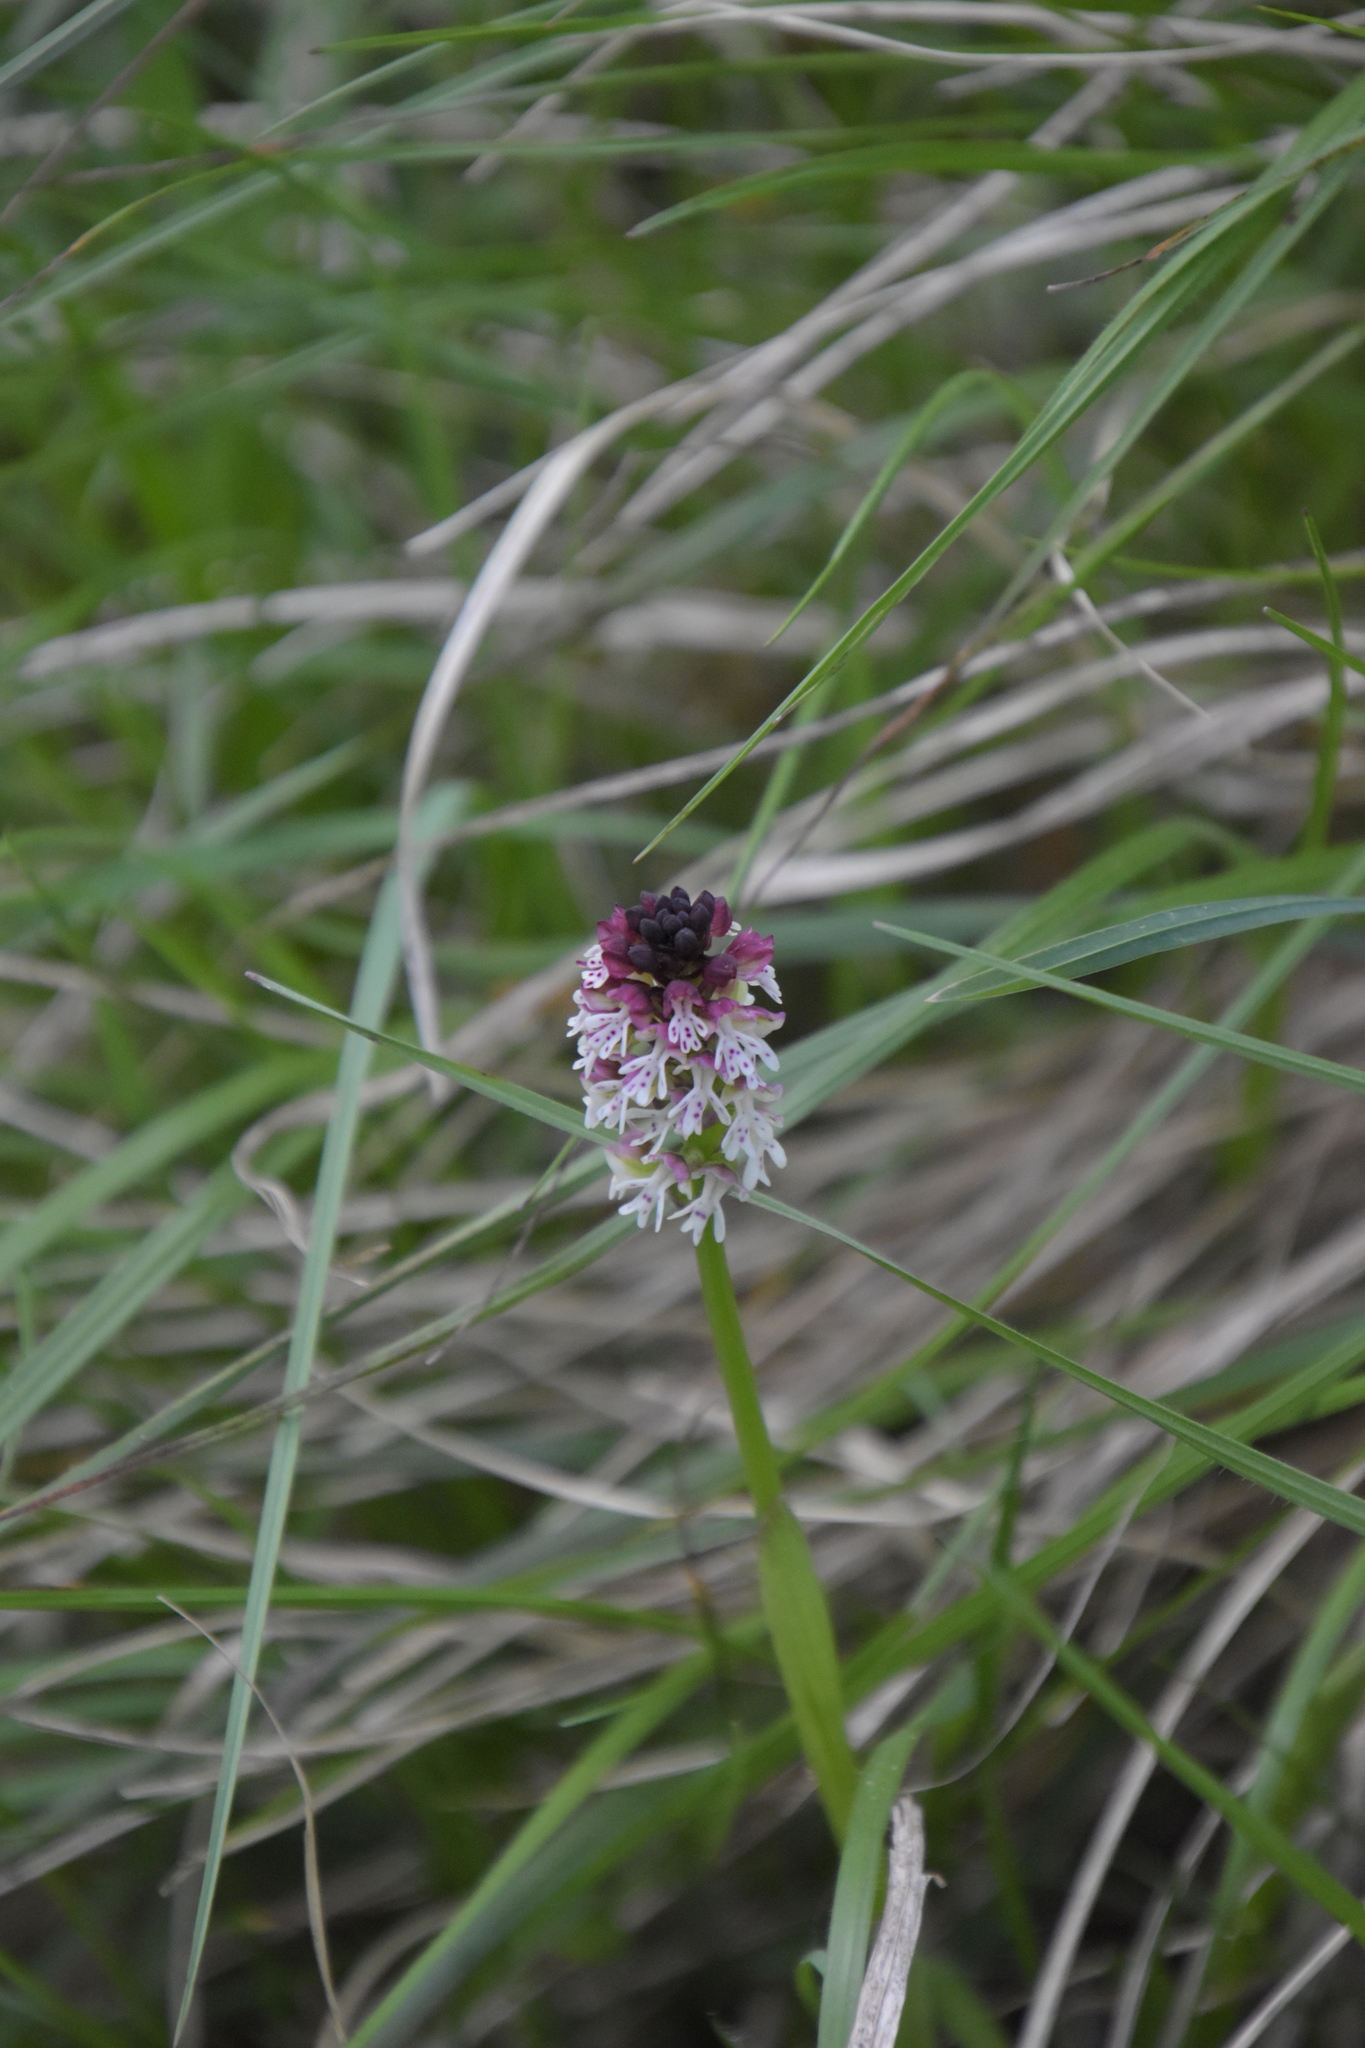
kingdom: Plantae
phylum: Tracheophyta
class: Liliopsida
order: Asparagales
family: Orchidaceae
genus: Neotinea
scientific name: Neotinea ustulata
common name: Burnt orchid
